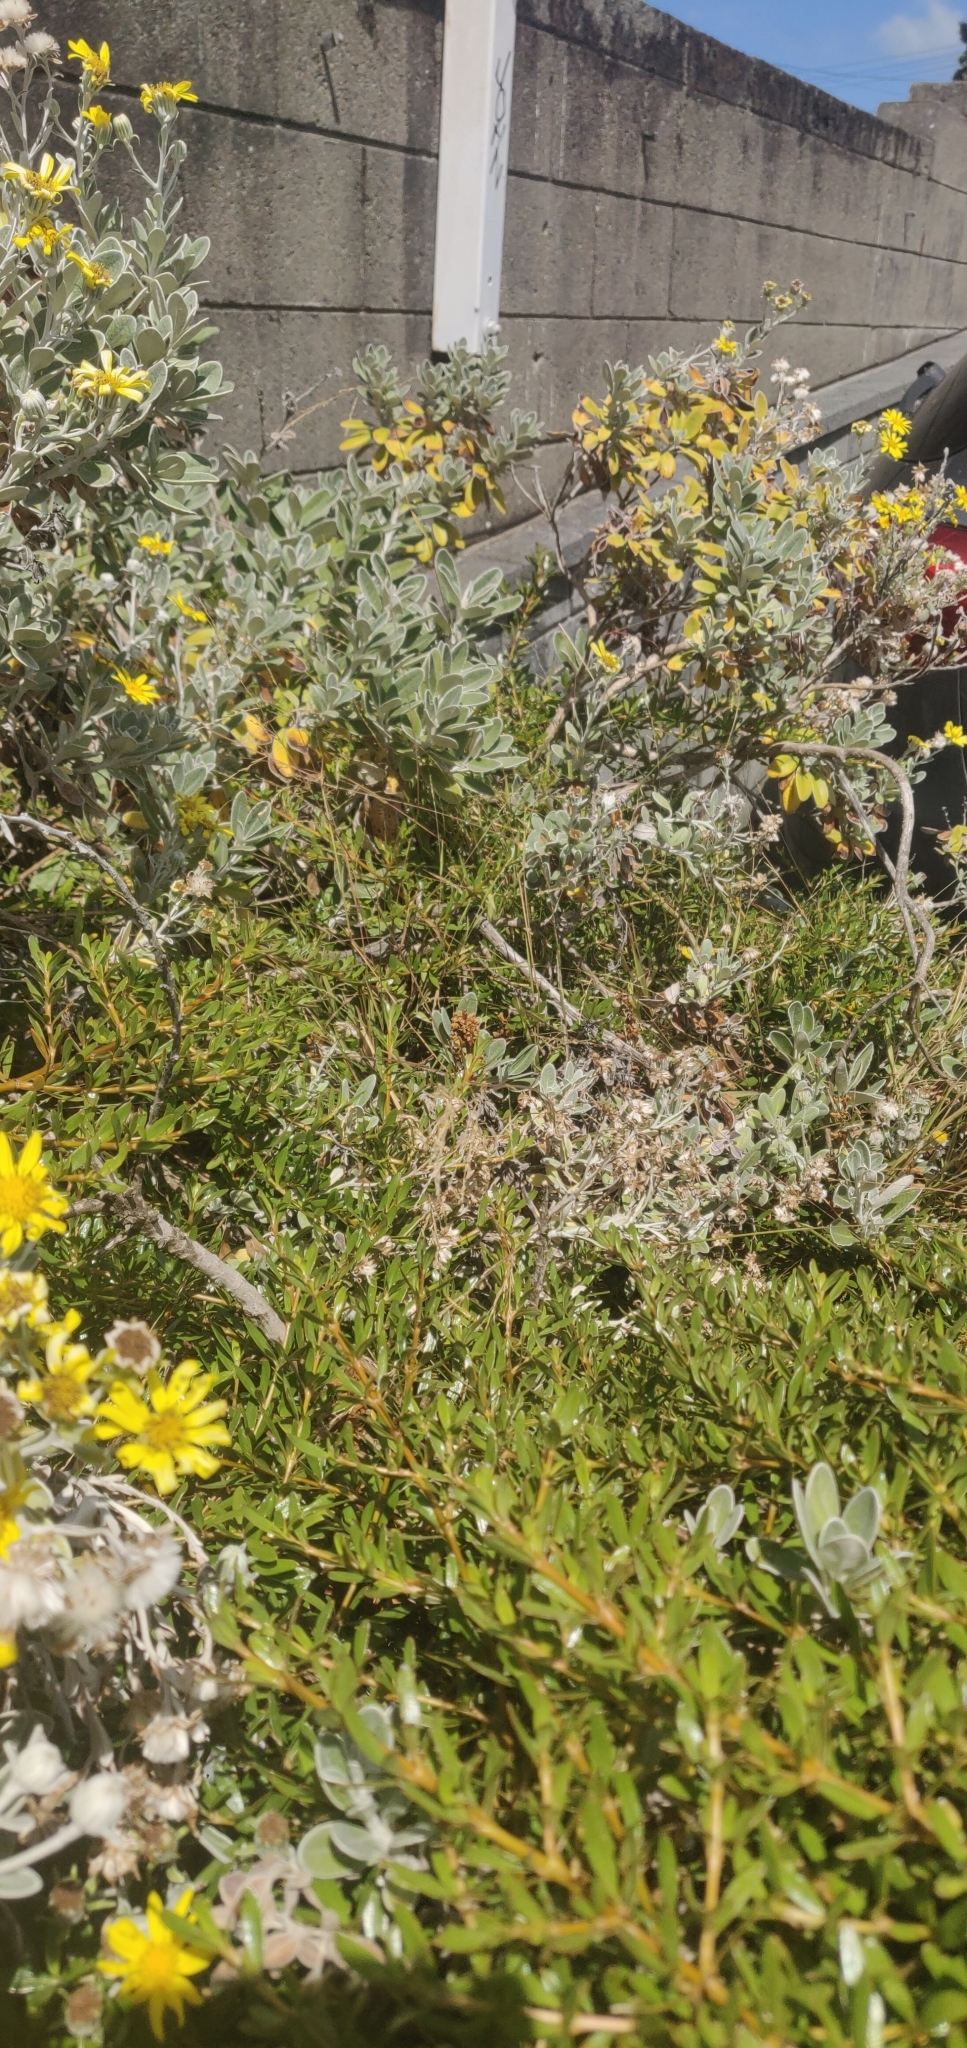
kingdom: Plantae
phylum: Tracheophyta
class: Magnoliopsida
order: Lamiales
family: Orobanchaceae
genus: Orobanche
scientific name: Orobanche minor
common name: Common broomrape
